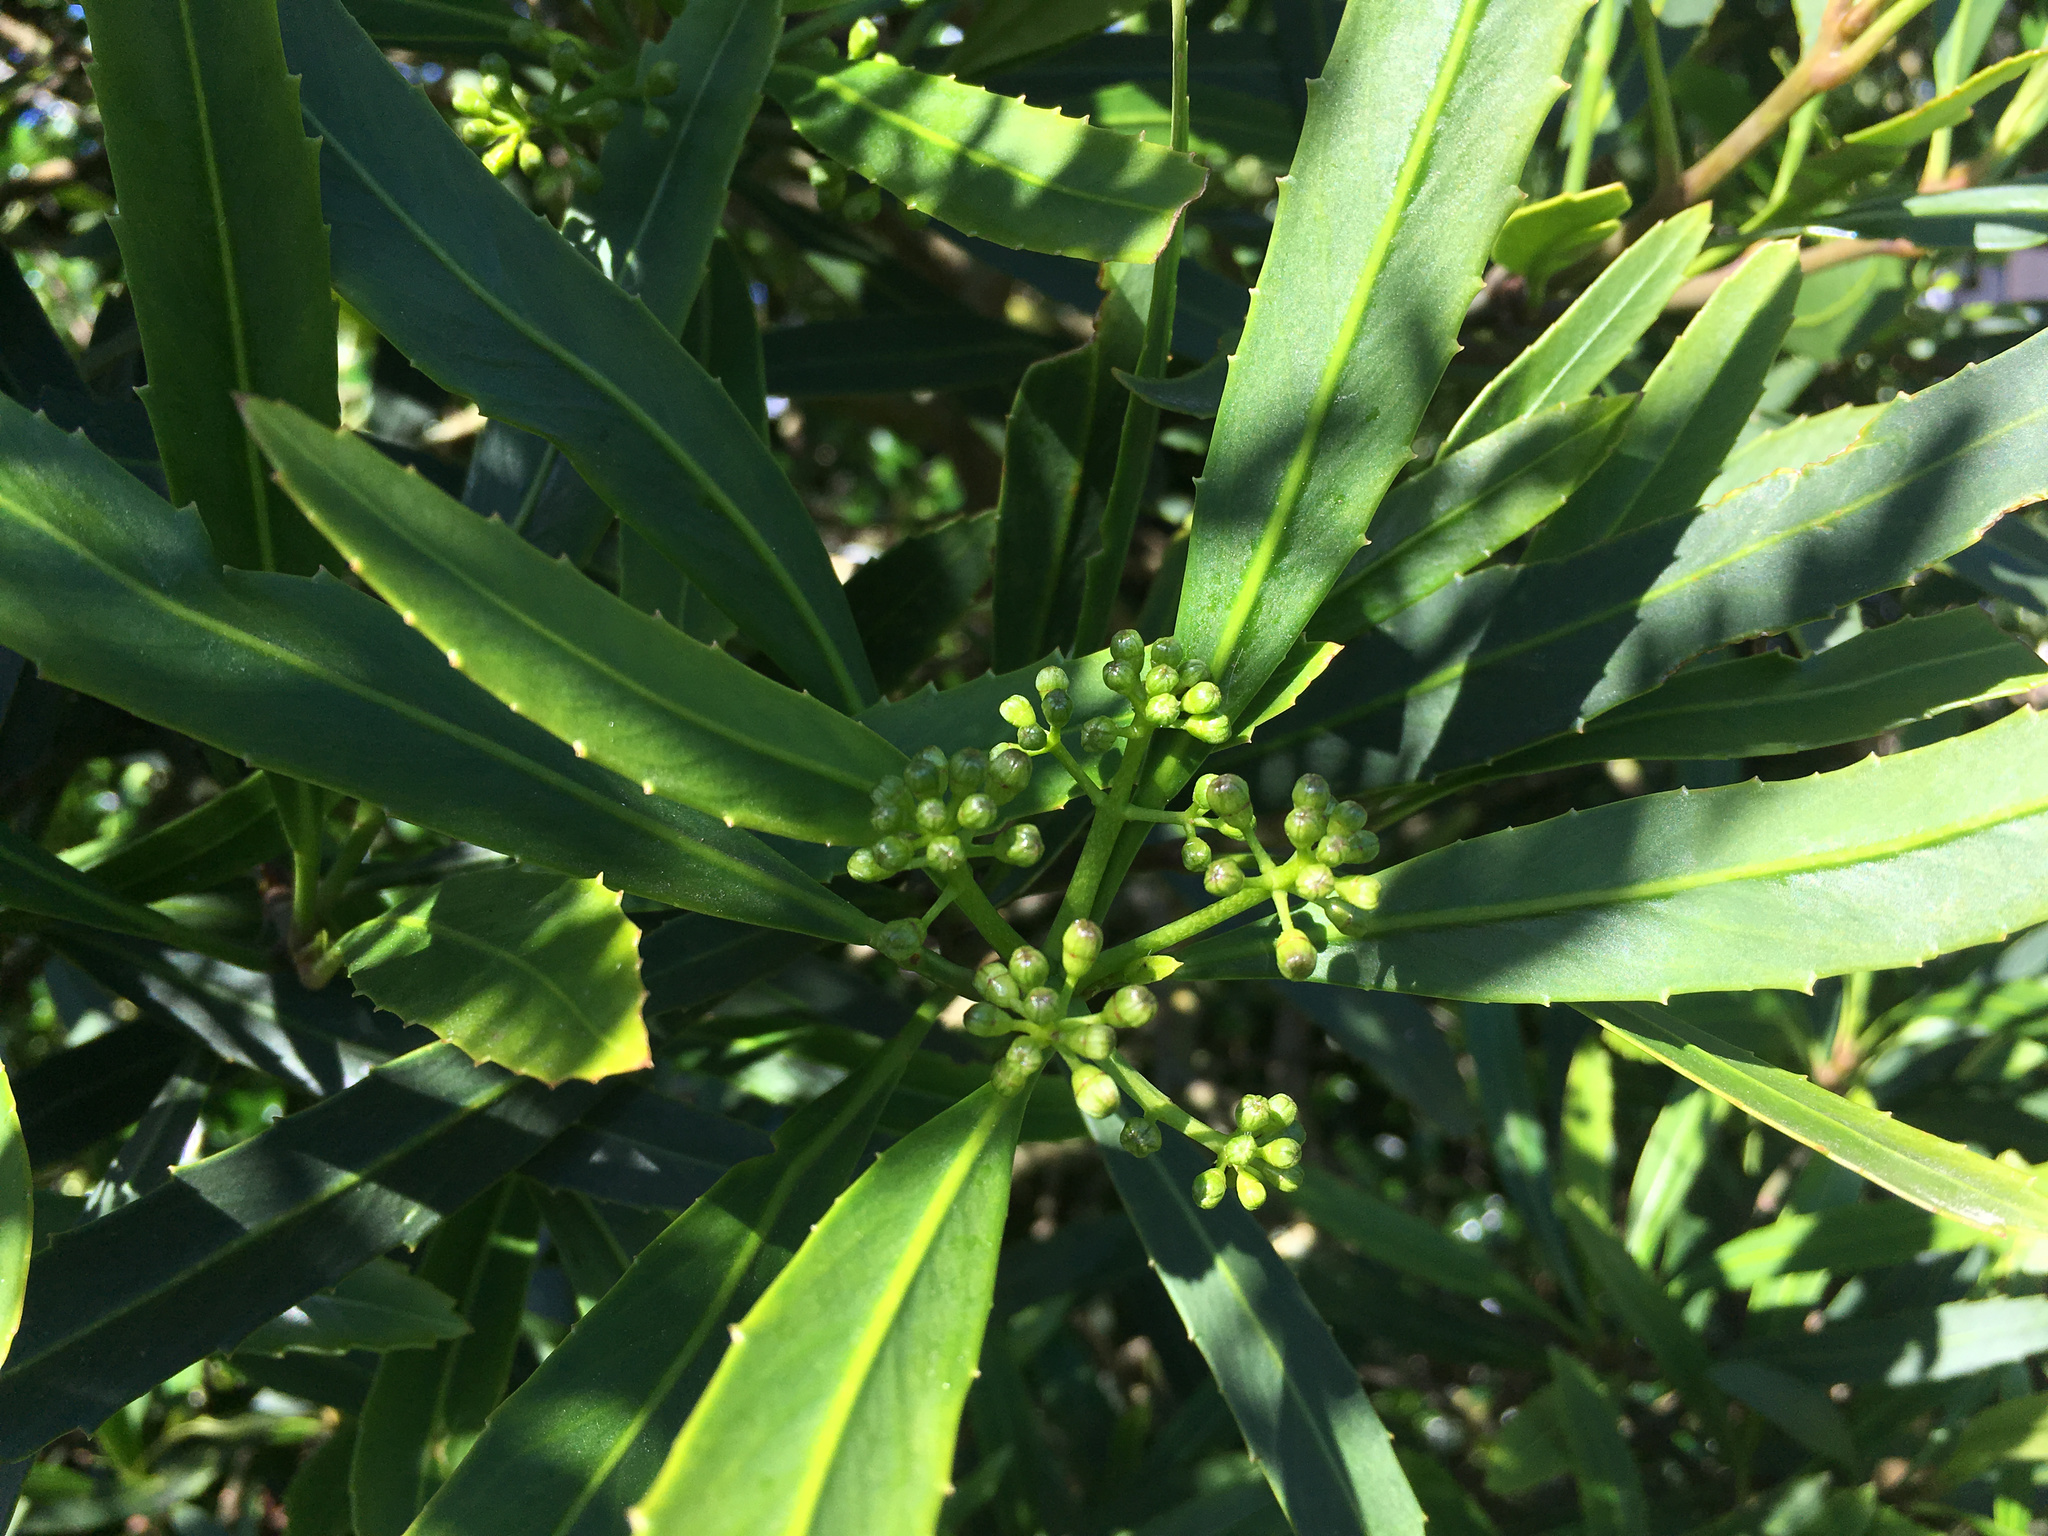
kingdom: Plantae
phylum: Tracheophyta
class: Magnoliopsida
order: Apiales
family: Araliaceae
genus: Pseudopanax
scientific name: Pseudopanax crassifolius
